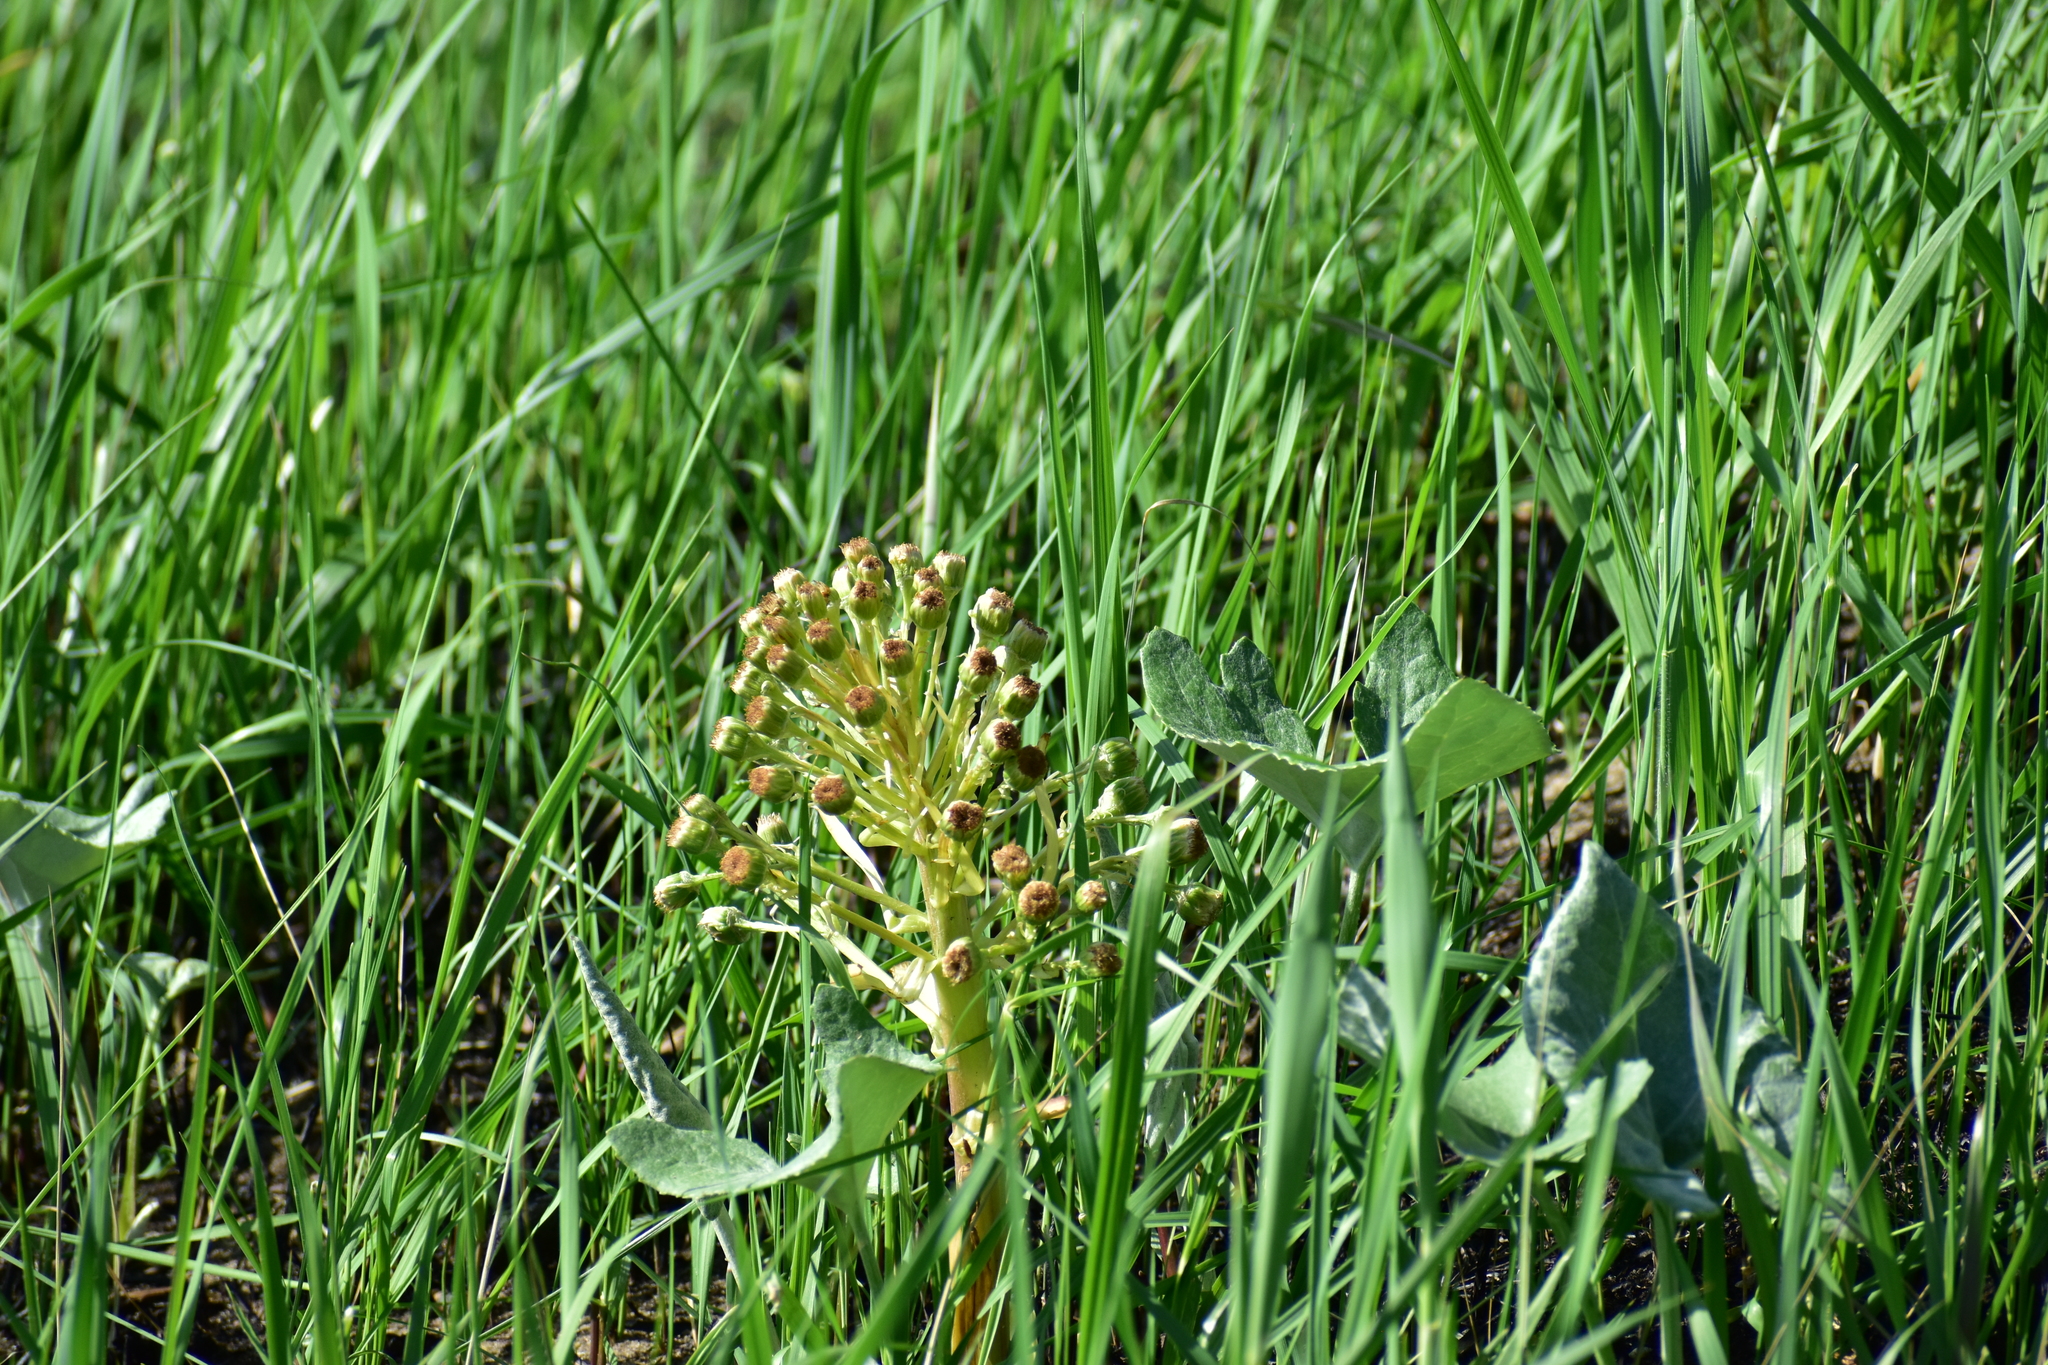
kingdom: Plantae
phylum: Tracheophyta
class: Magnoliopsida
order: Asterales
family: Asteraceae
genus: Petasites
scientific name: Petasites spurius
